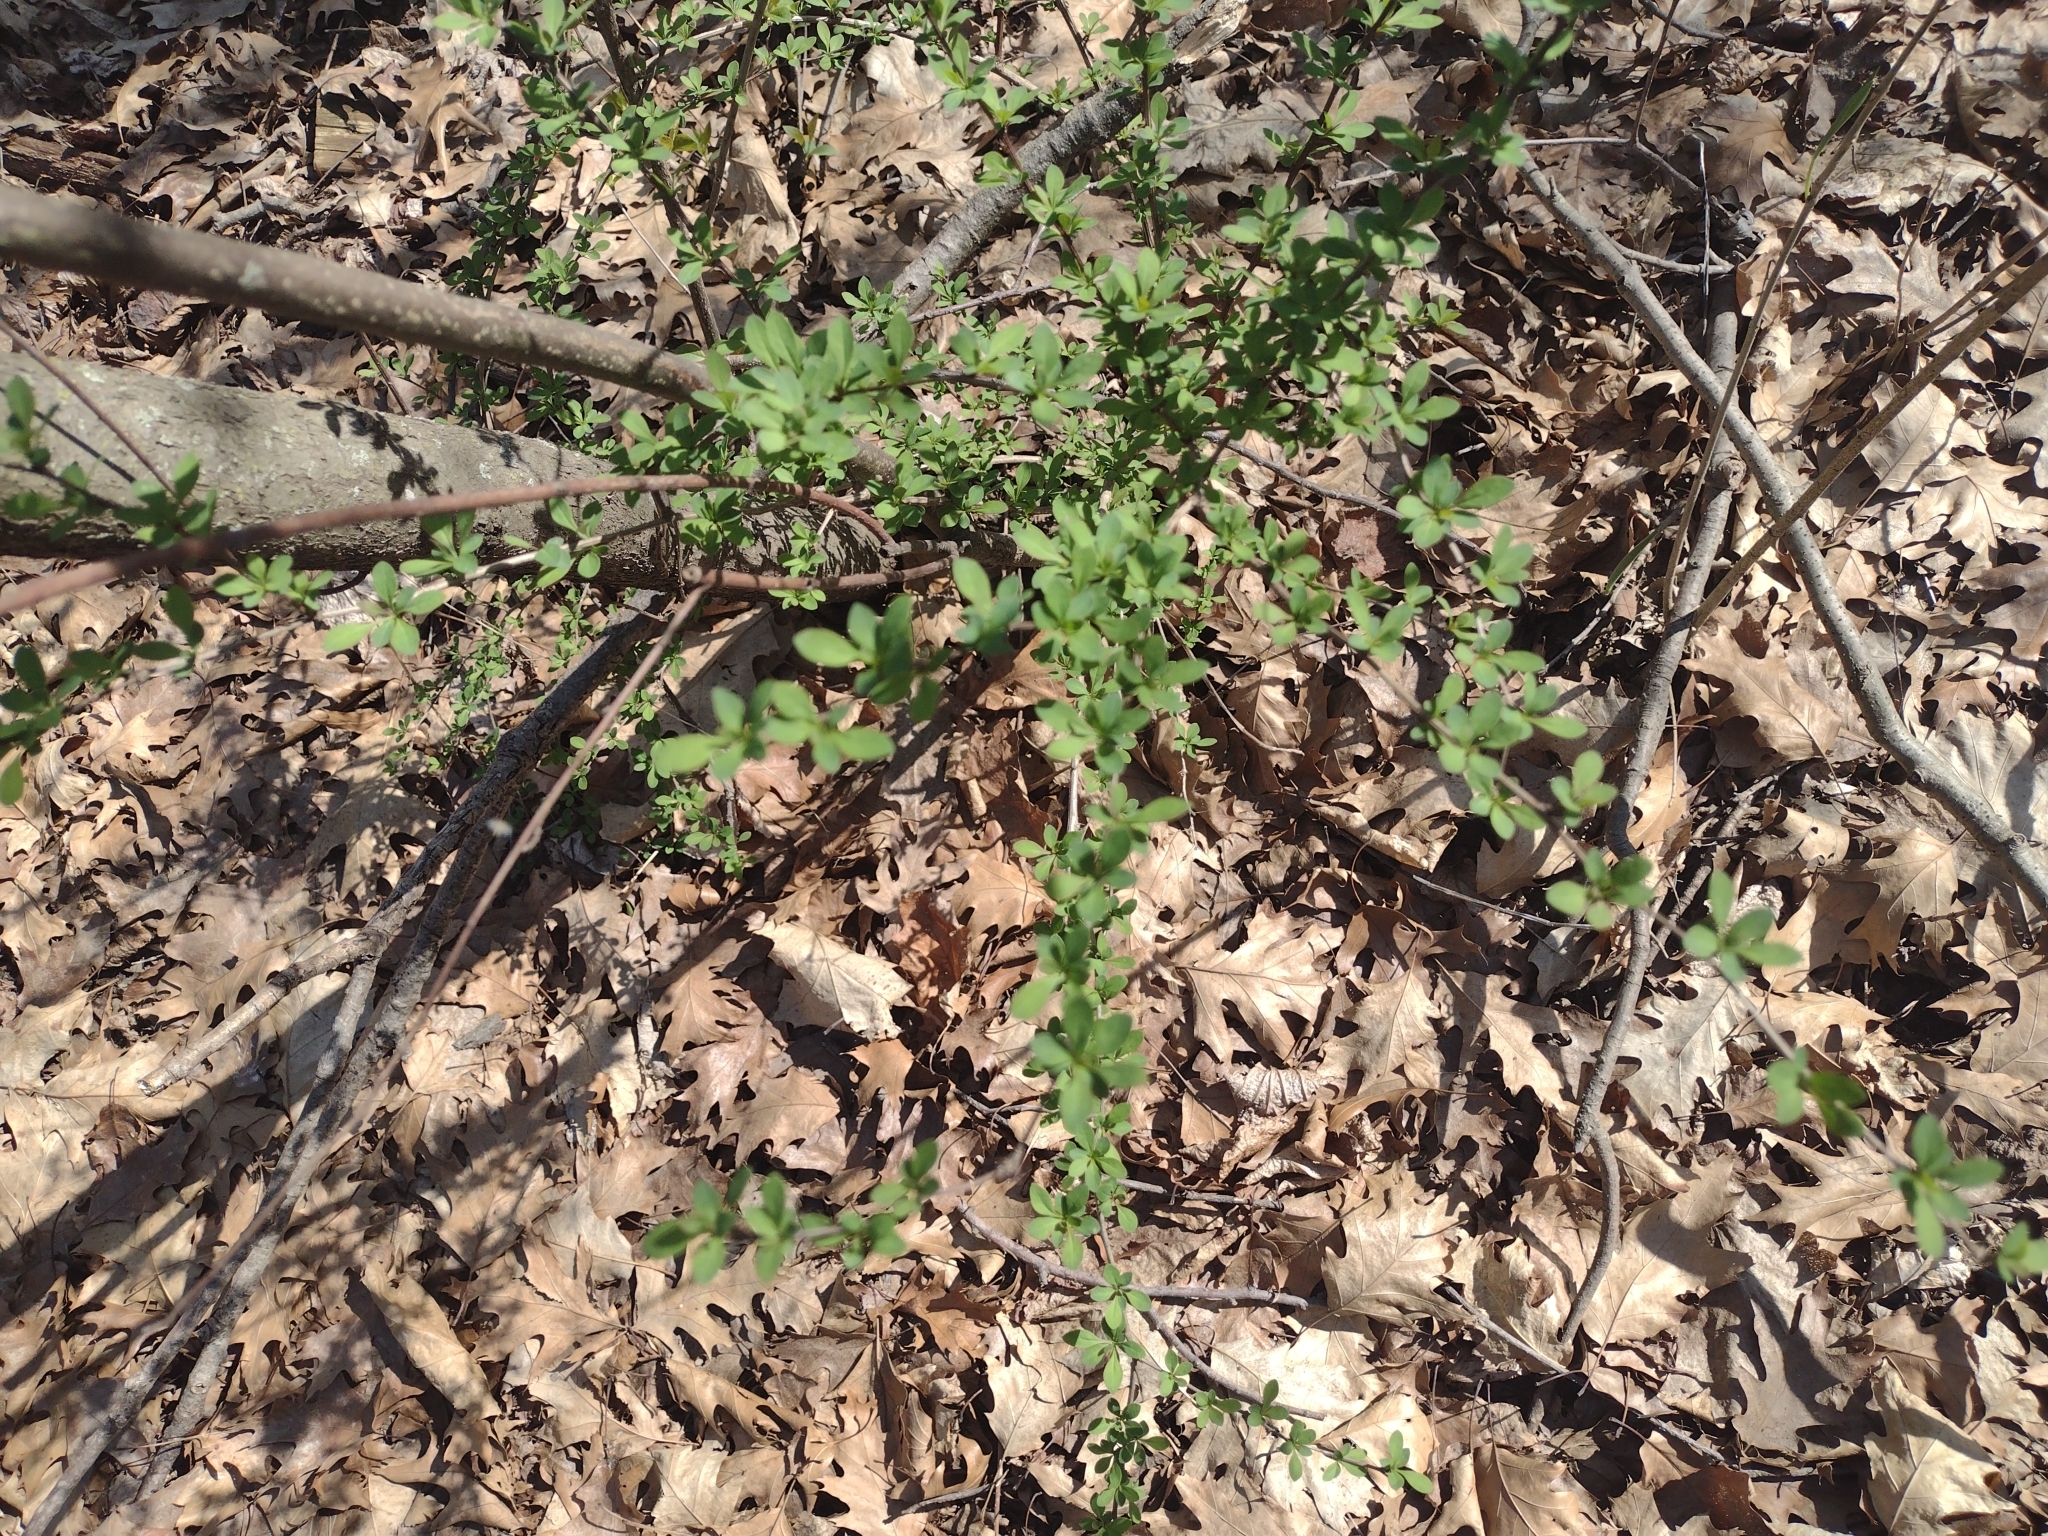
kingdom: Plantae
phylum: Tracheophyta
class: Magnoliopsida
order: Ranunculales
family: Berberidaceae
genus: Berberis
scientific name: Berberis thunbergii
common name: Japanese barberry
